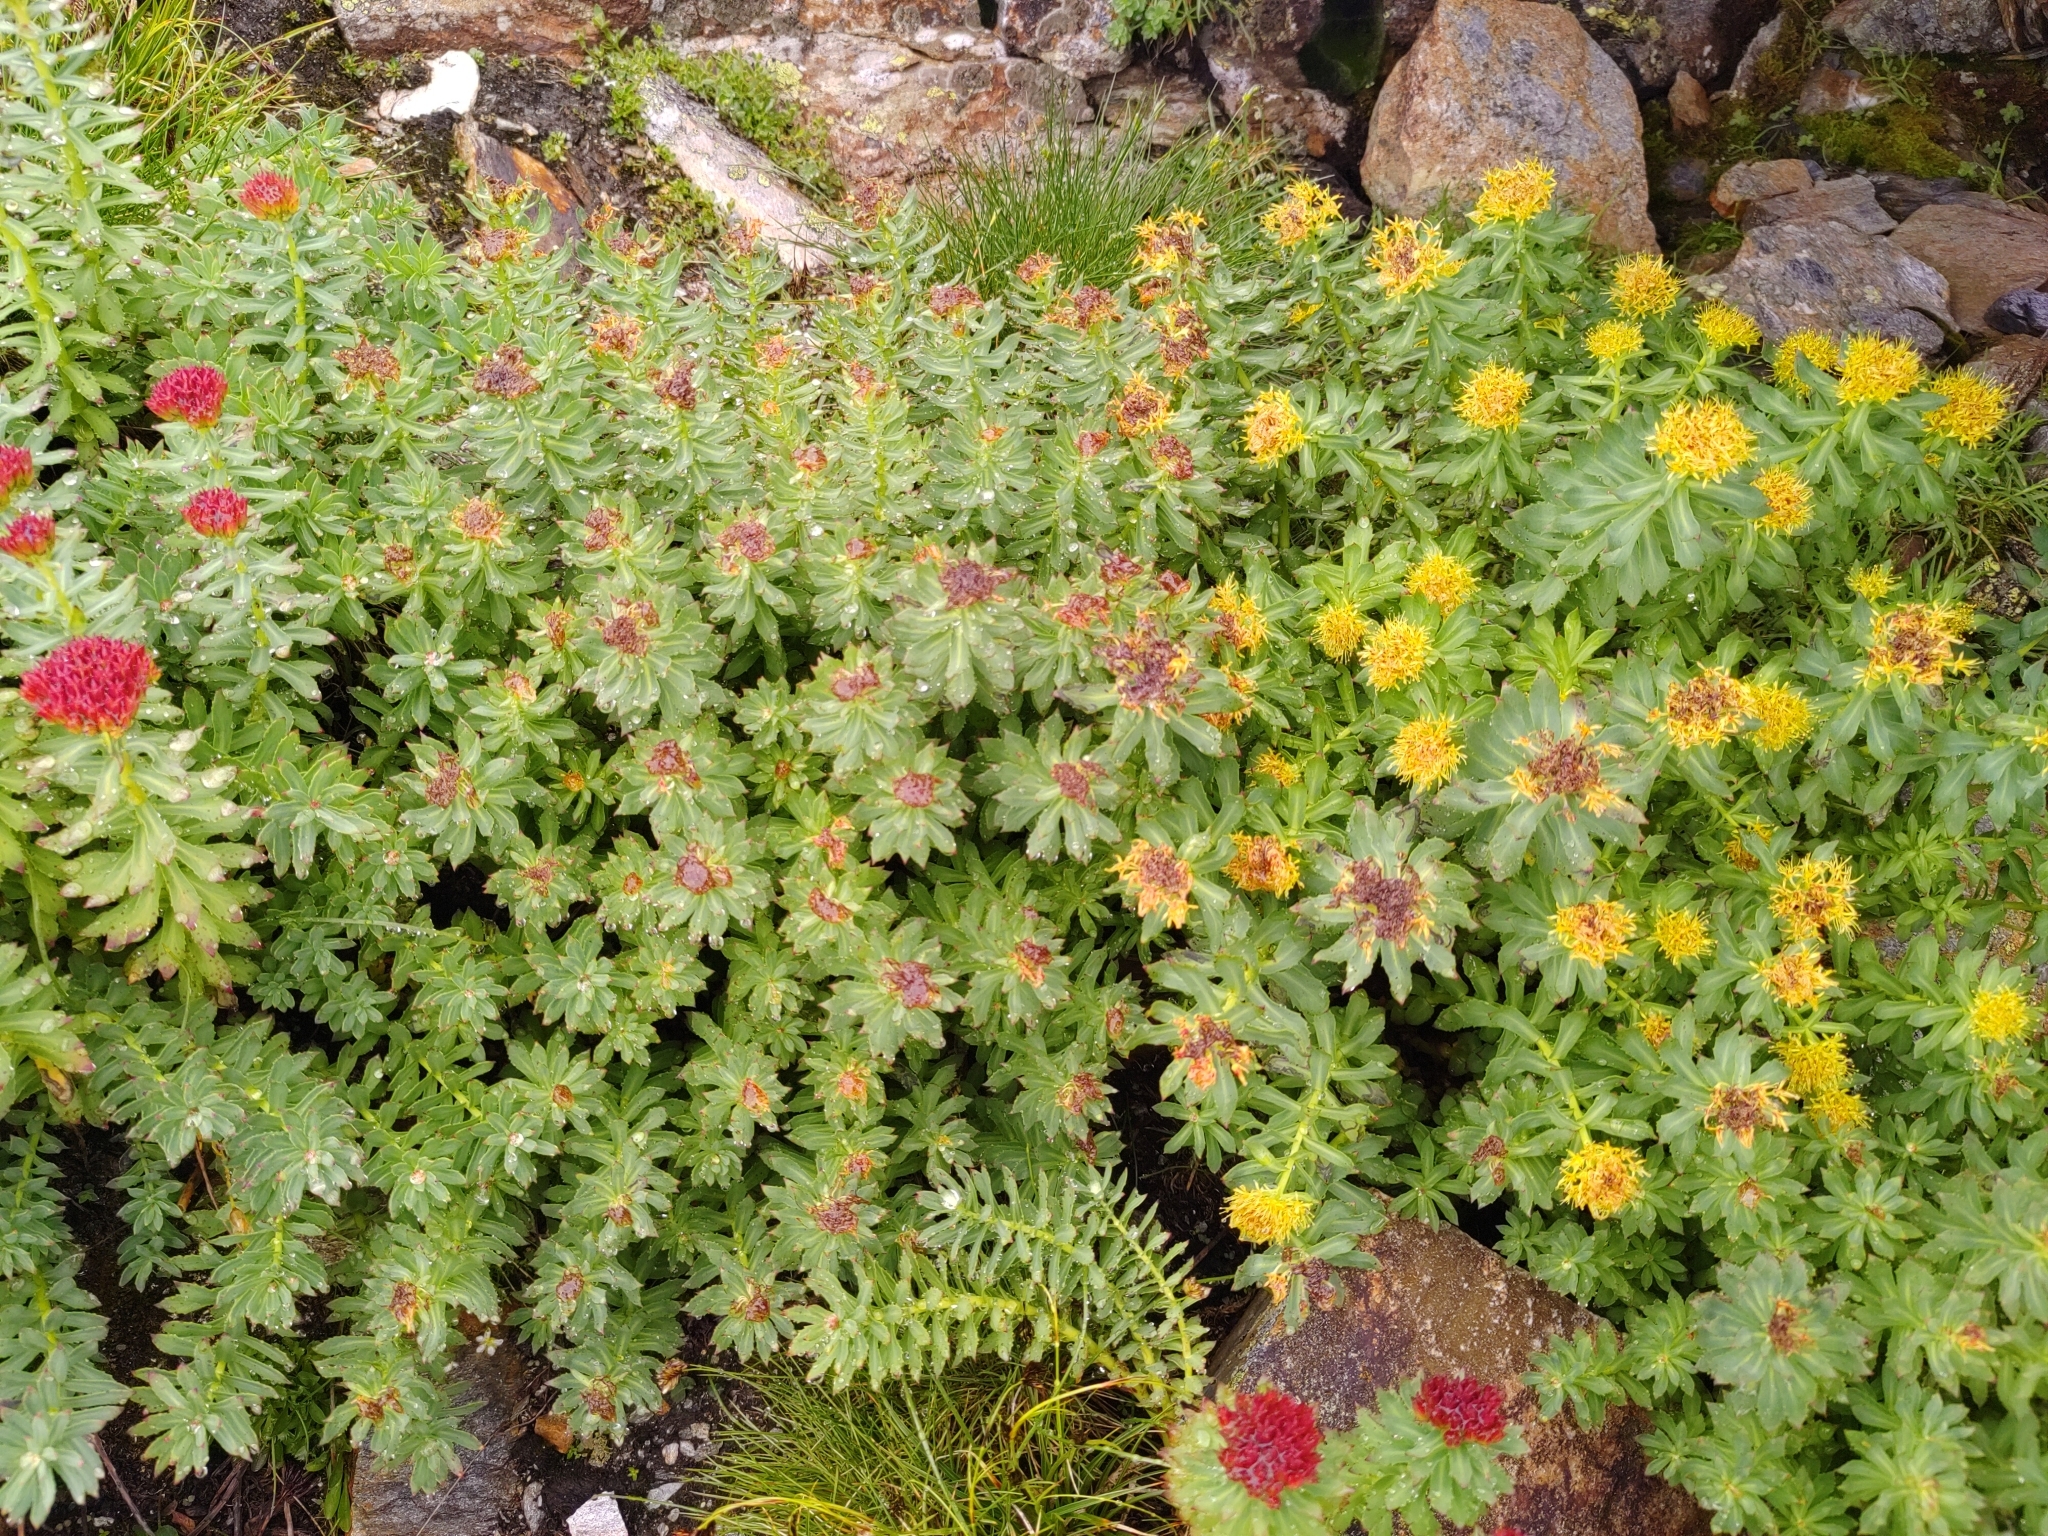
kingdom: Plantae
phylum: Tracheophyta
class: Magnoliopsida
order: Saxifragales
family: Crassulaceae
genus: Rhodiola
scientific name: Rhodiola rosea
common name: Roseroot
